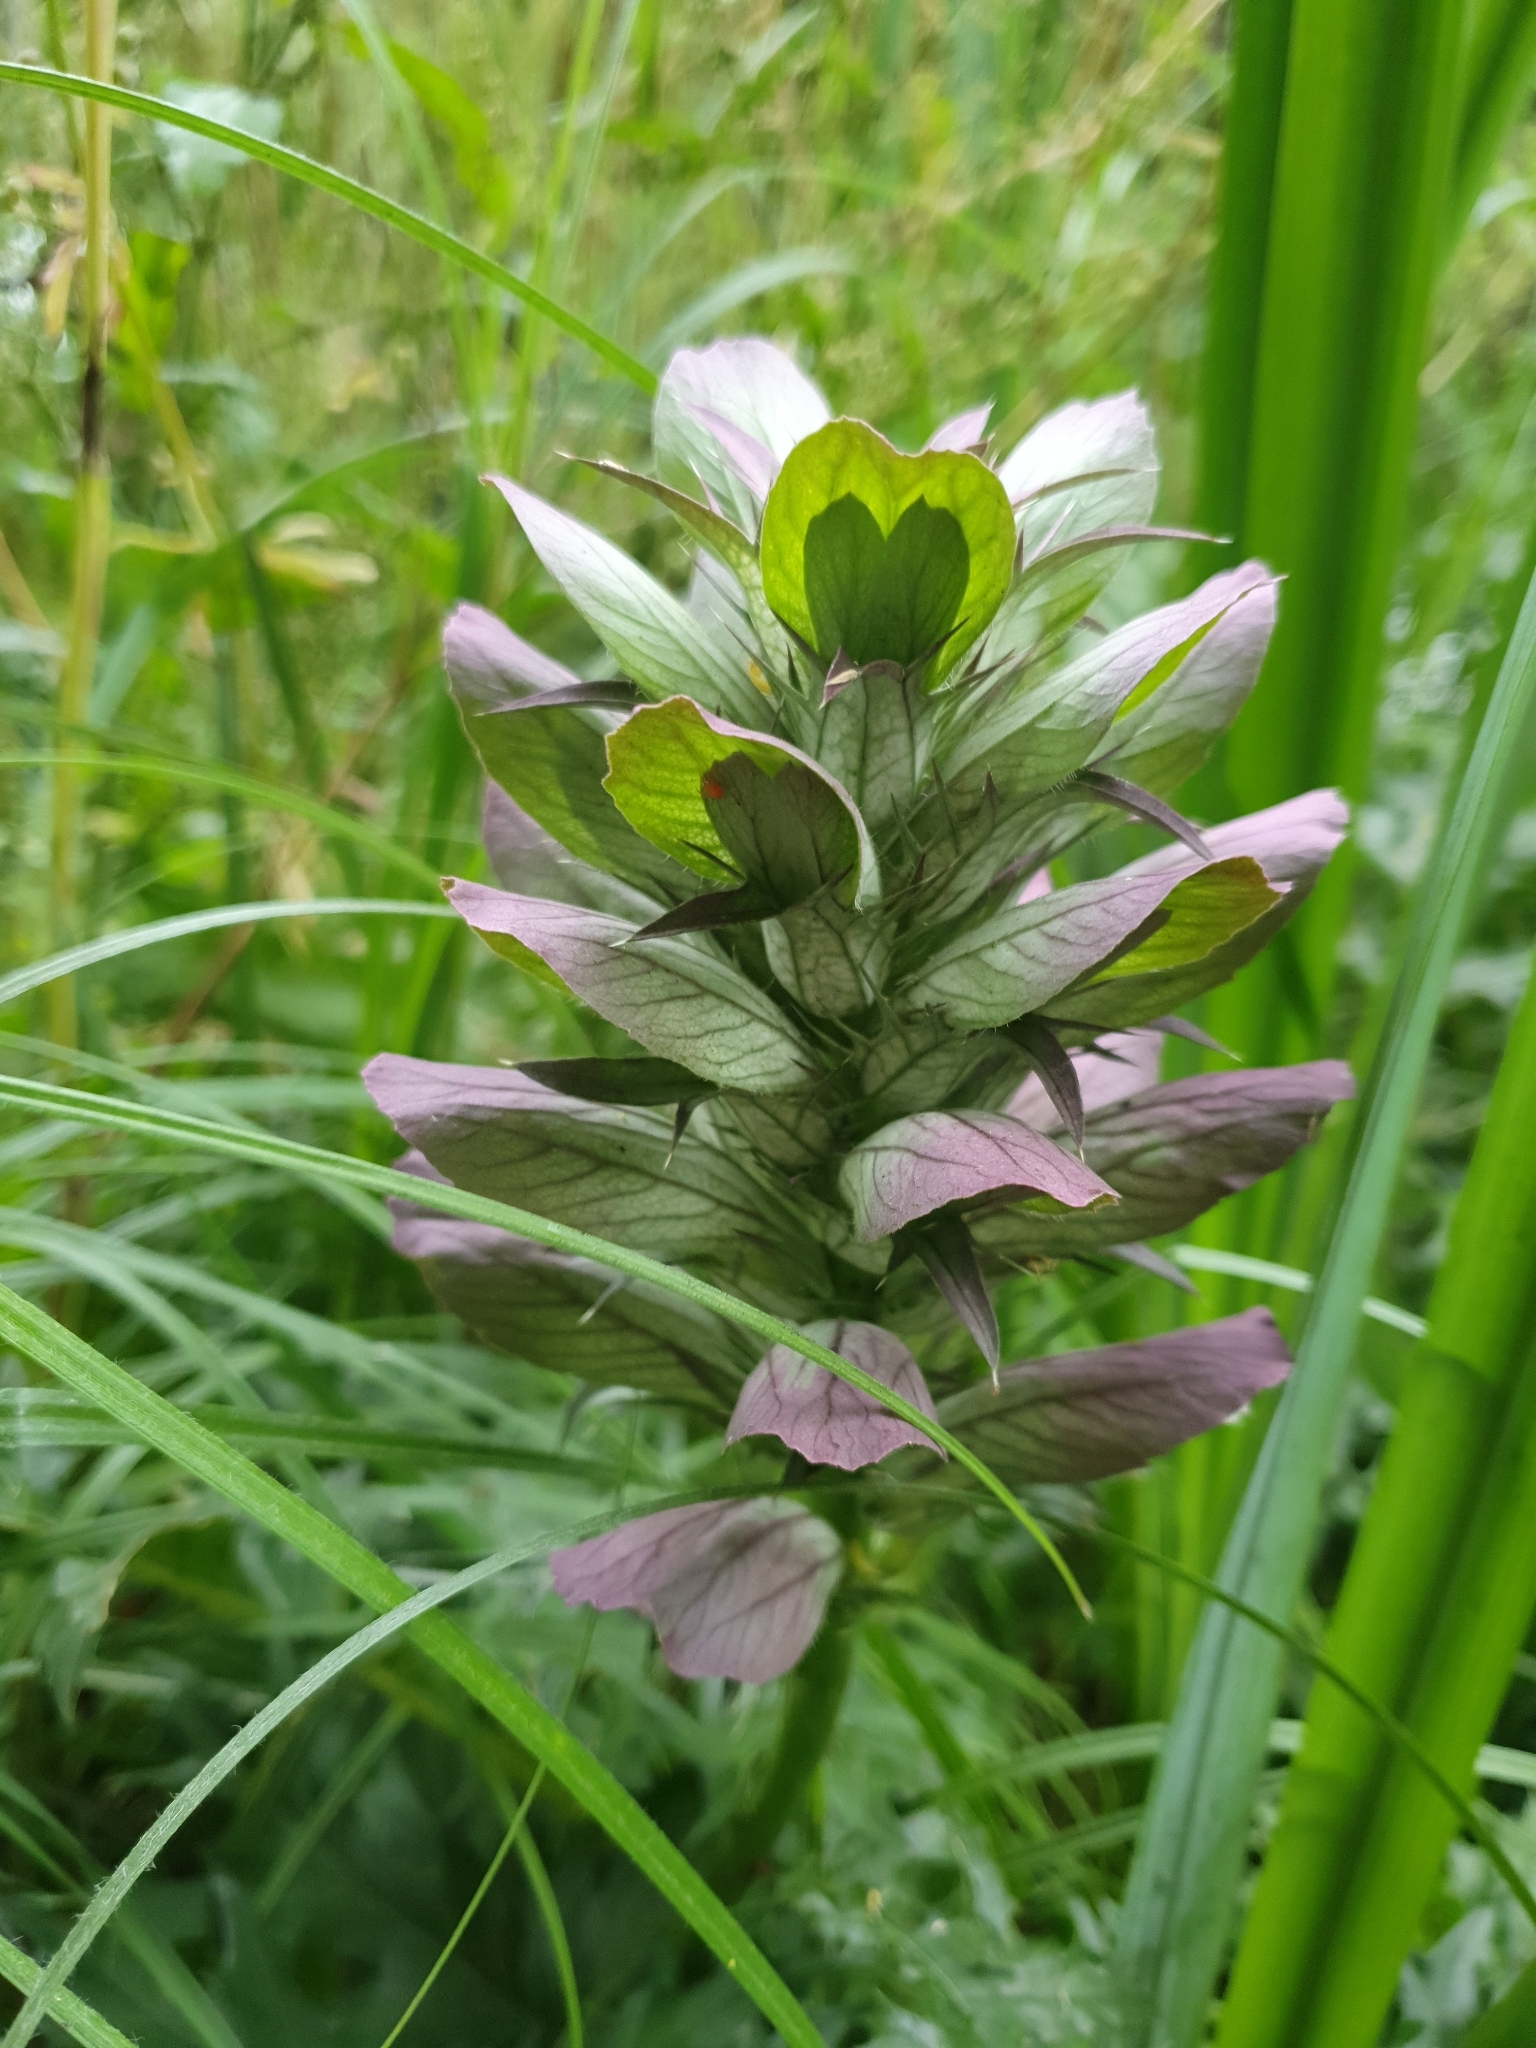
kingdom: Plantae
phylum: Tracheophyta
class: Magnoliopsida
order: Lamiales
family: Acanthaceae
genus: Acanthus
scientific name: Acanthus mollis
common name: Bear's-breech
